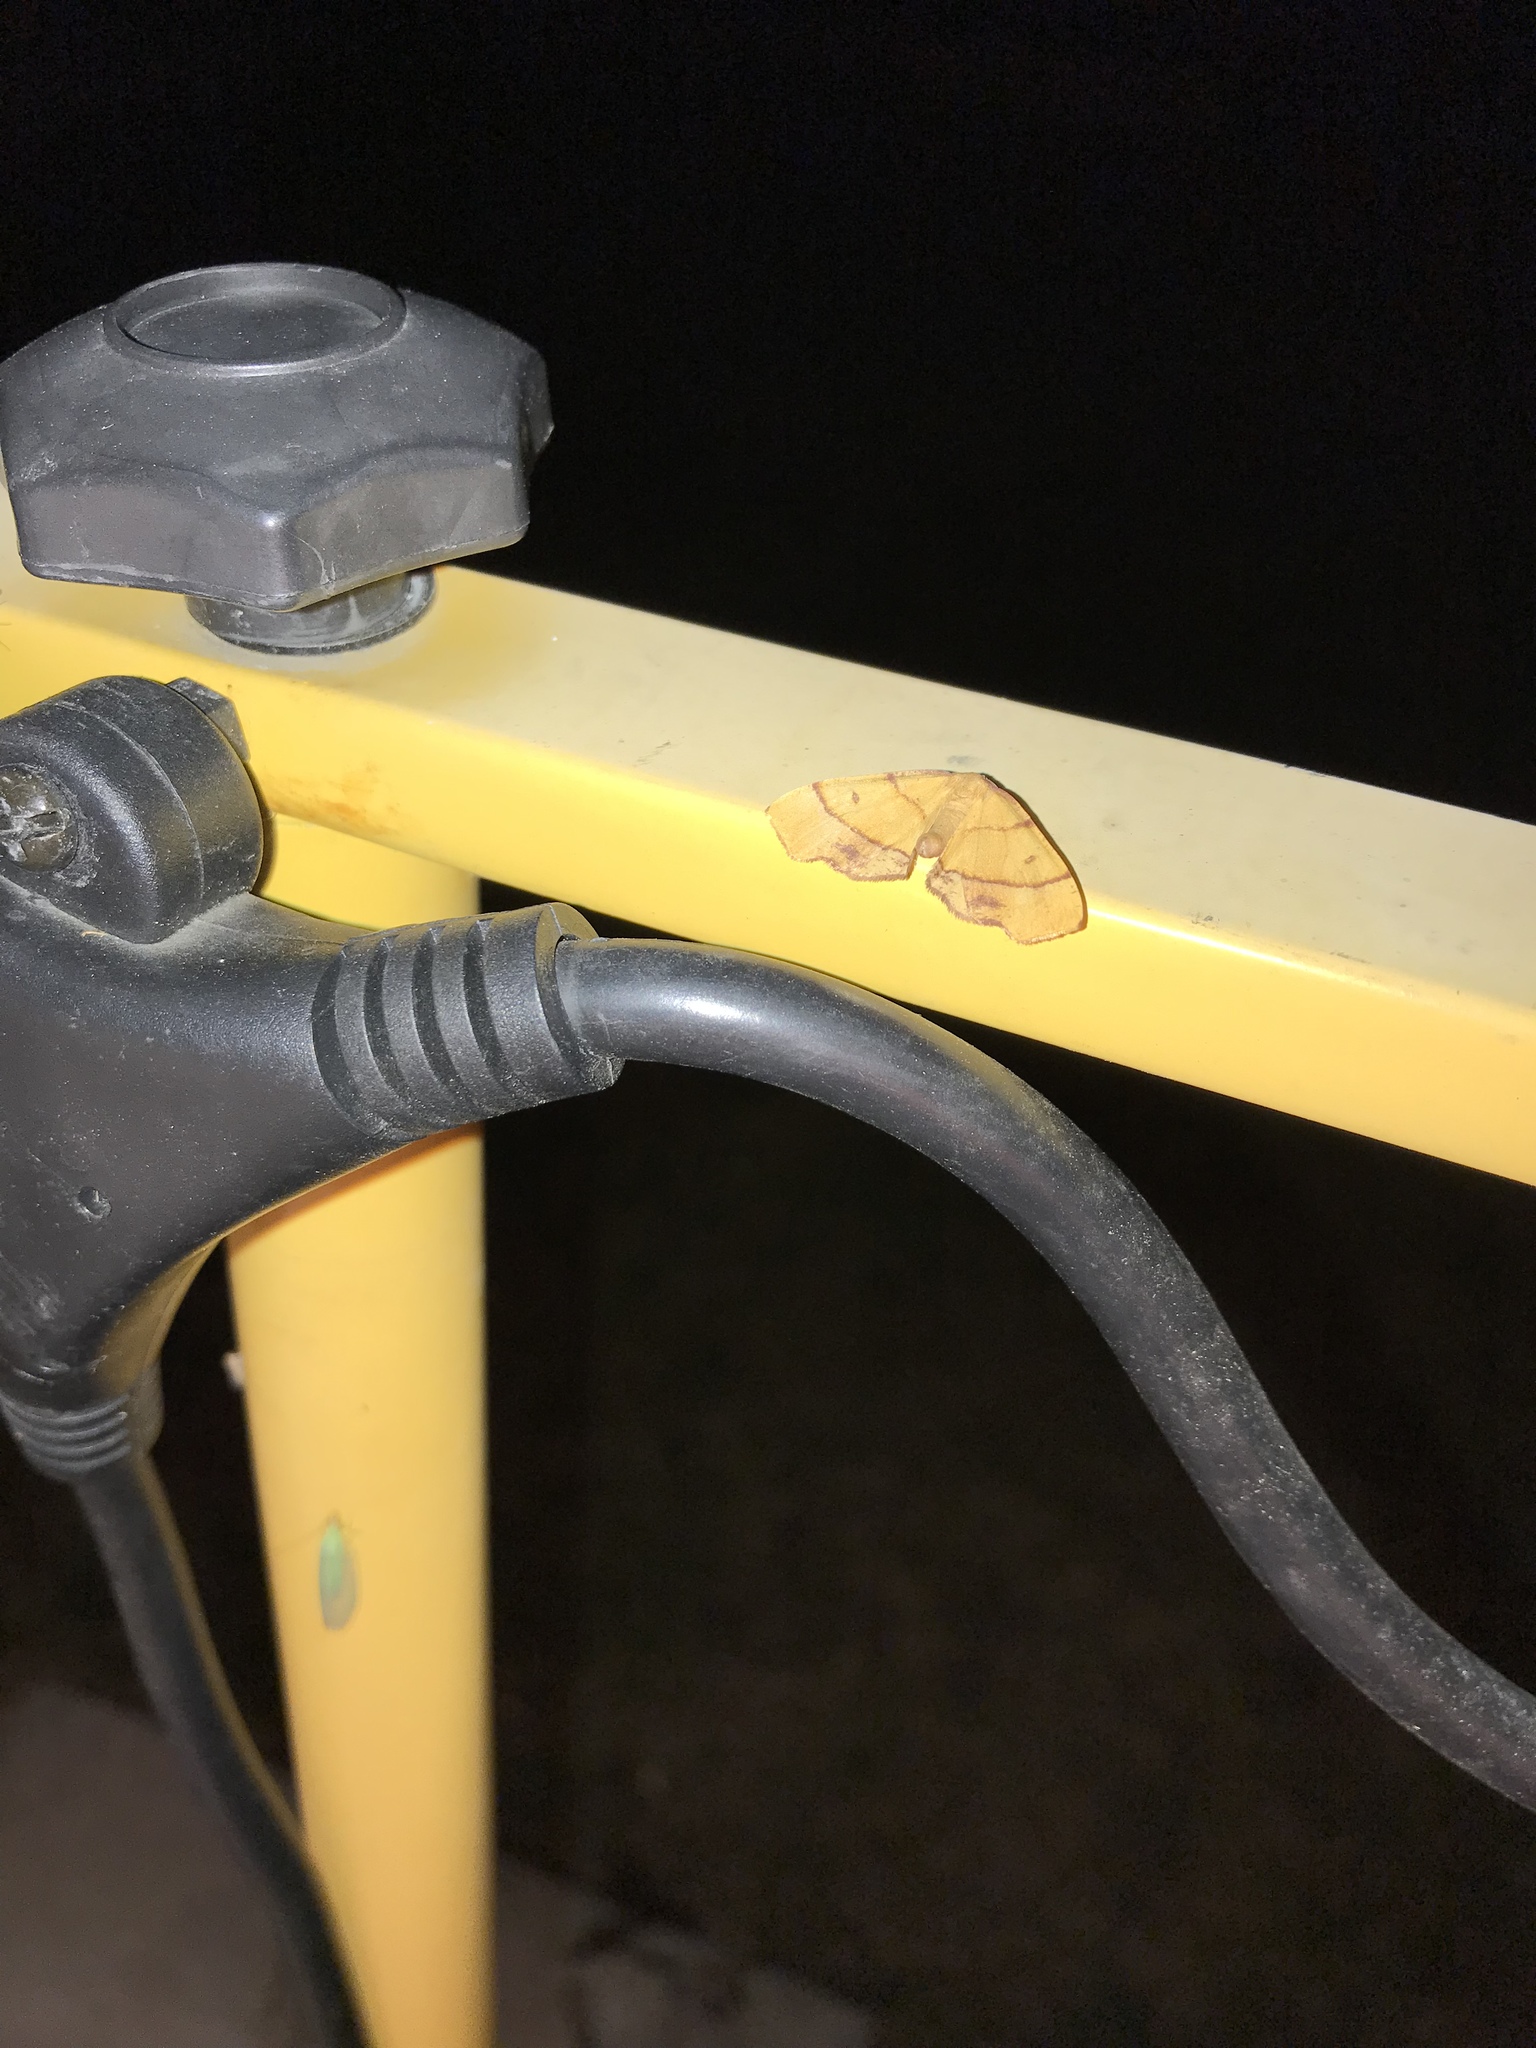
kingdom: Animalia
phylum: Arthropoda
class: Insecta
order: Lepidoptera
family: Geometridae
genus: Plagodis
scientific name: Plagodis phlogosaria
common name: Straight-lined plagodis
